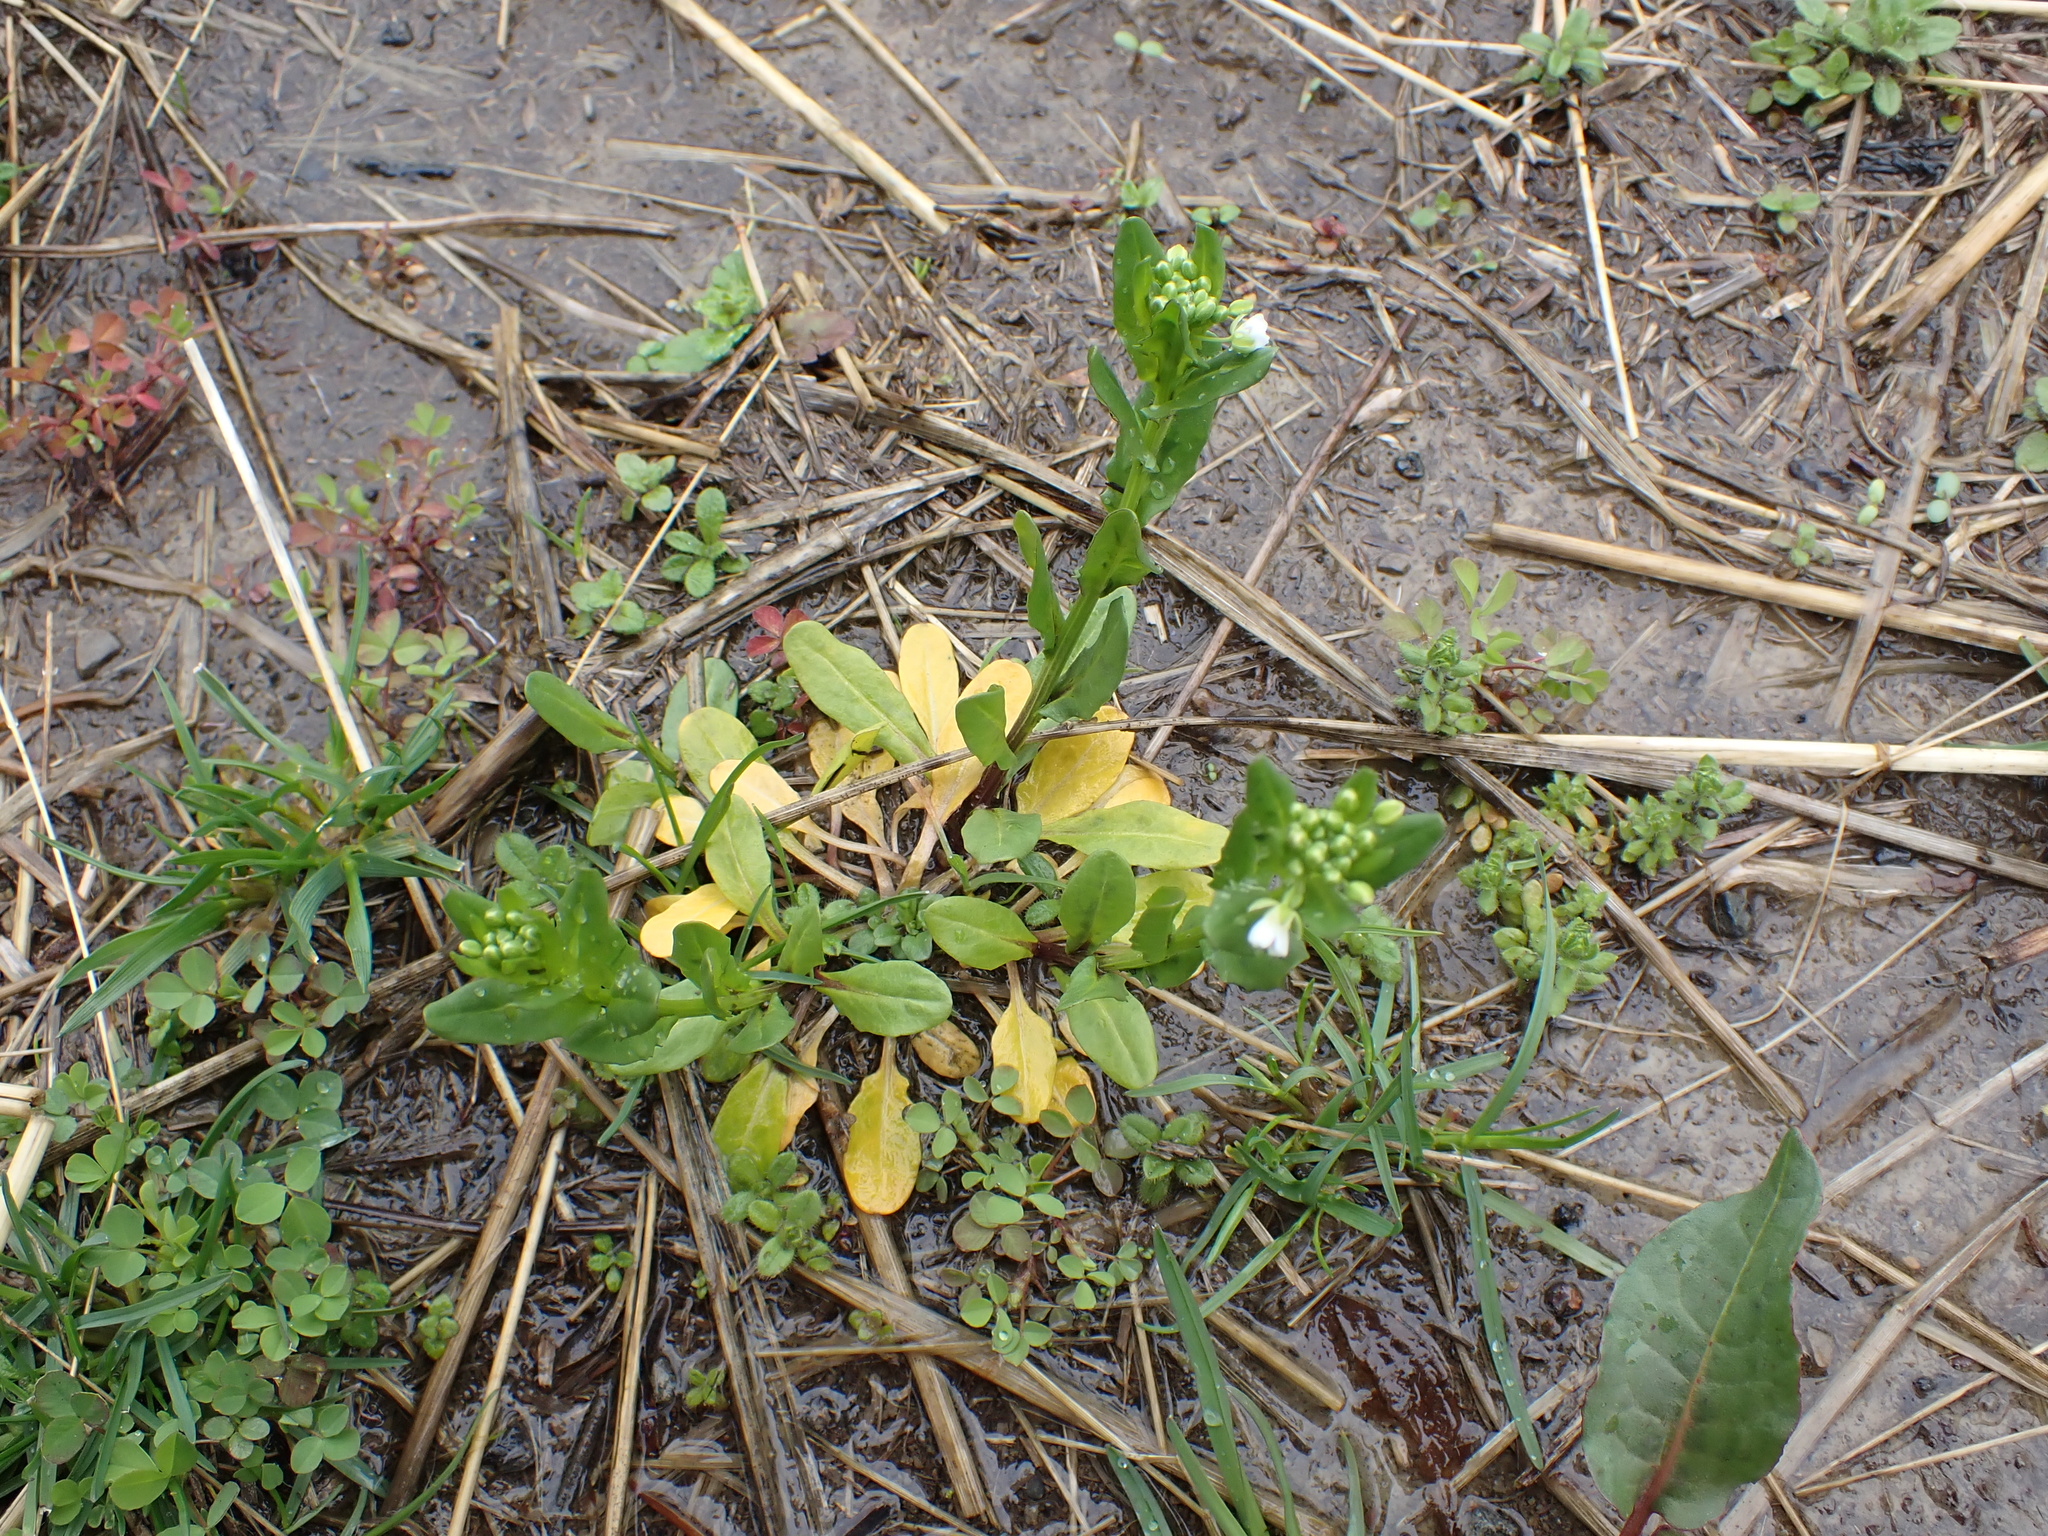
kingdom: Plantae
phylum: Tracheophyta
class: Magnoliopsida
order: Brassicales
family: Brassicaceae
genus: Thlaspi
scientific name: Thlaspi arvense
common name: Field pennycress
